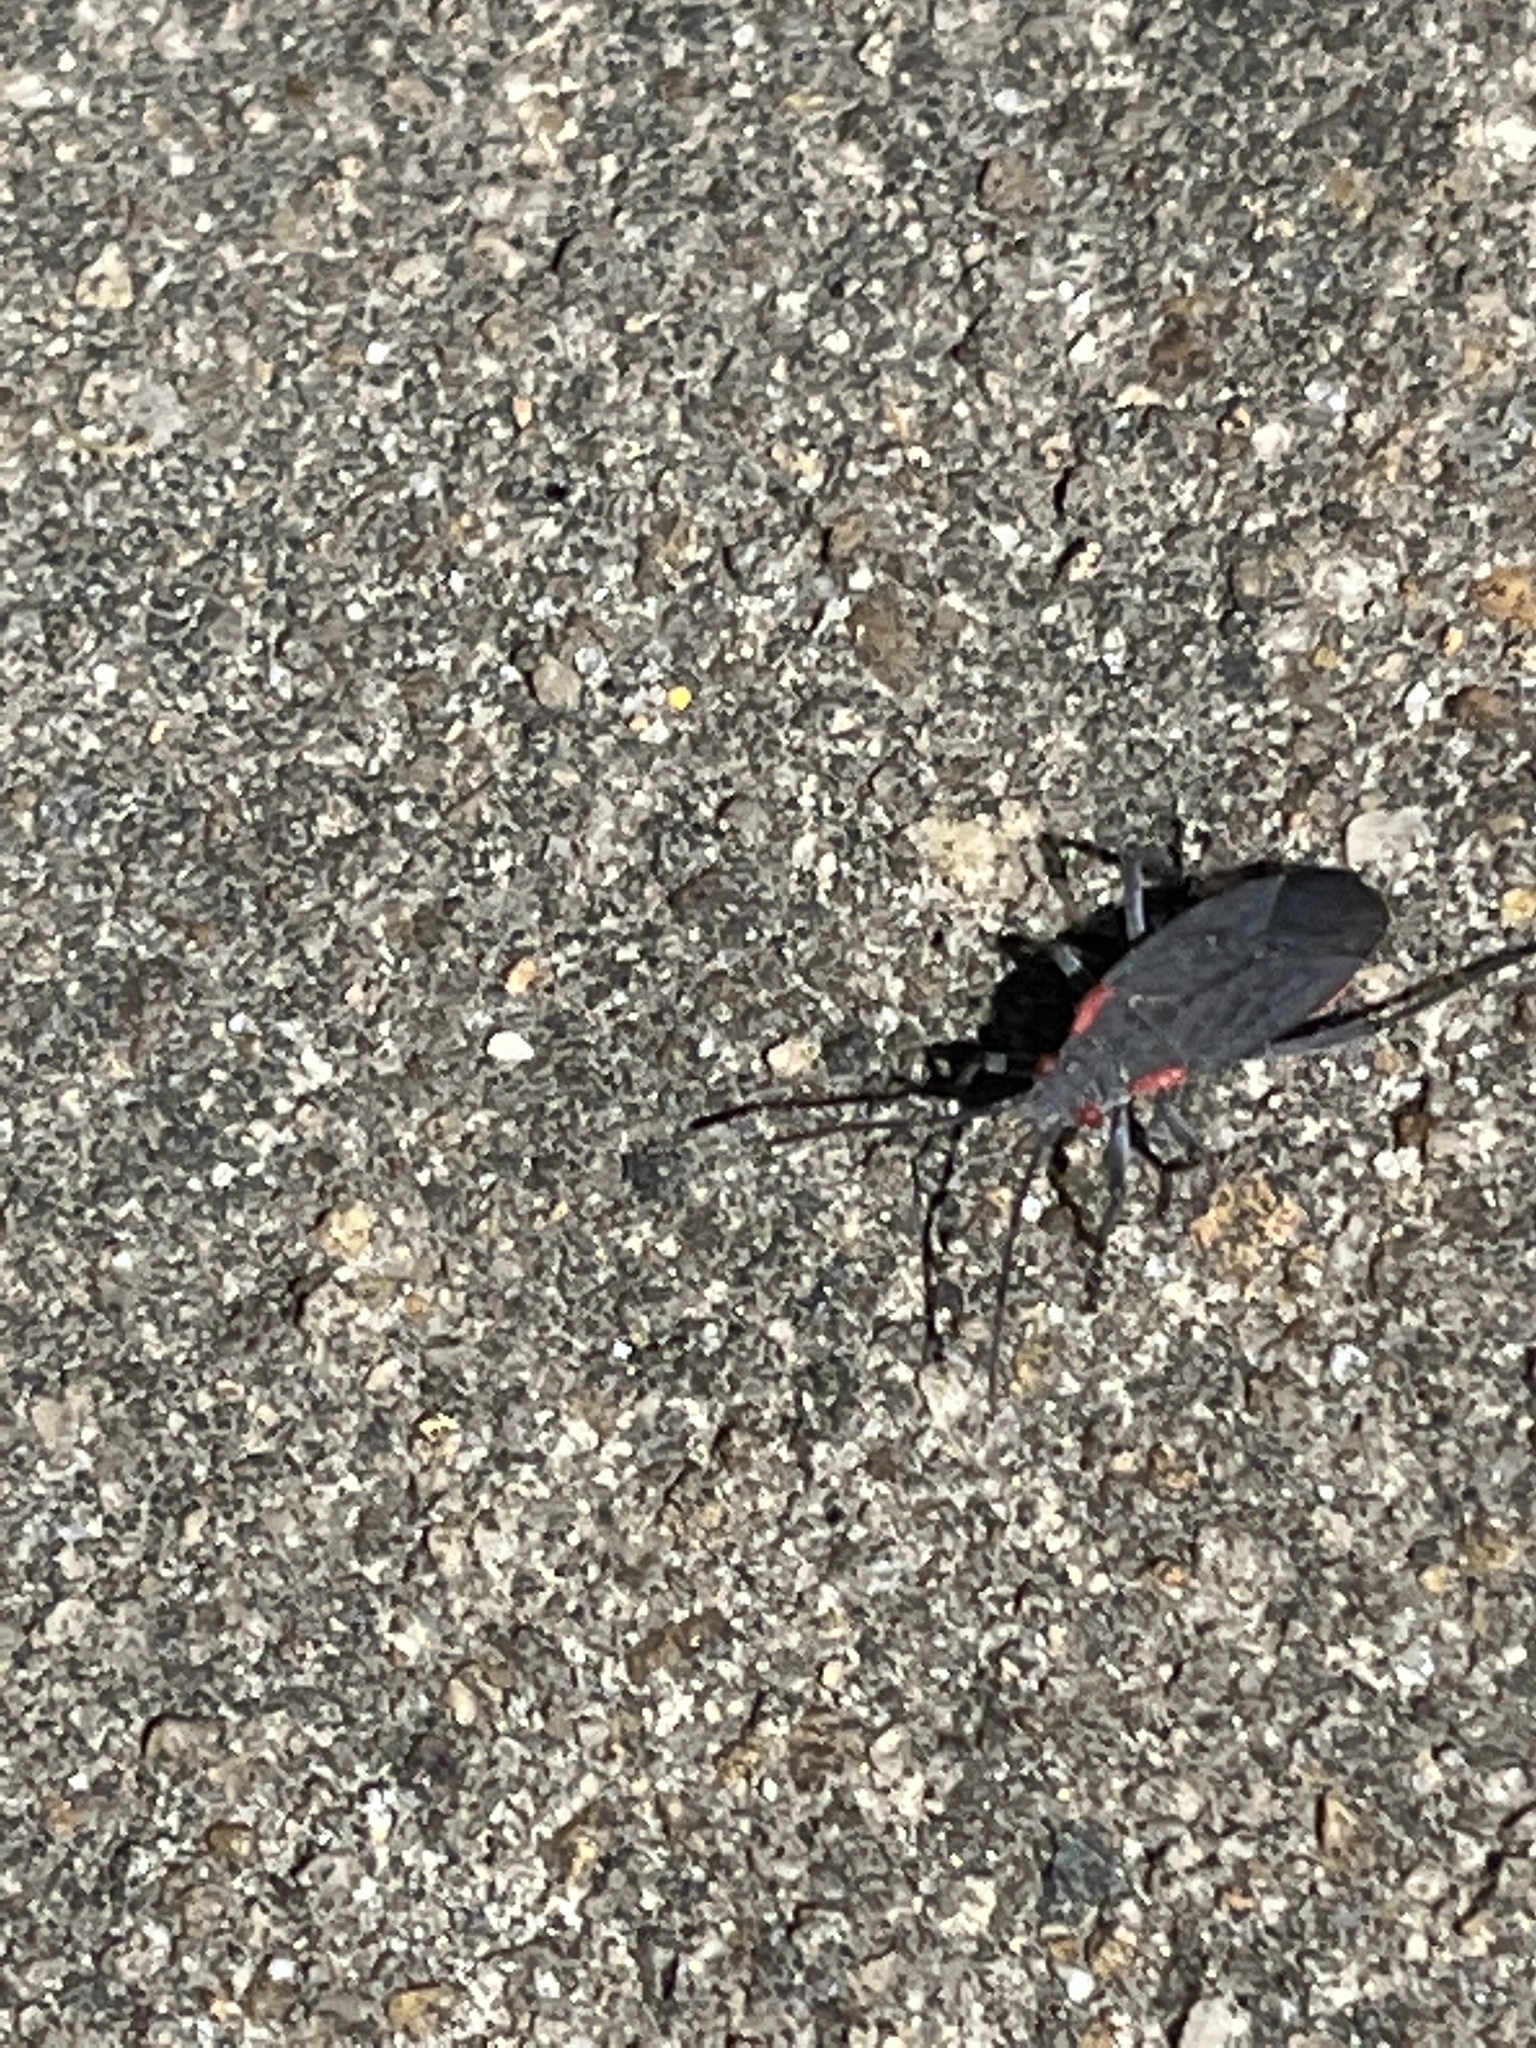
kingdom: Animalia
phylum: Arthropoda
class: Insecta
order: Hemiptera
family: Rhopalidae
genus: Jadera
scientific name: Jadera haematoloma
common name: Red-shouldered bug
